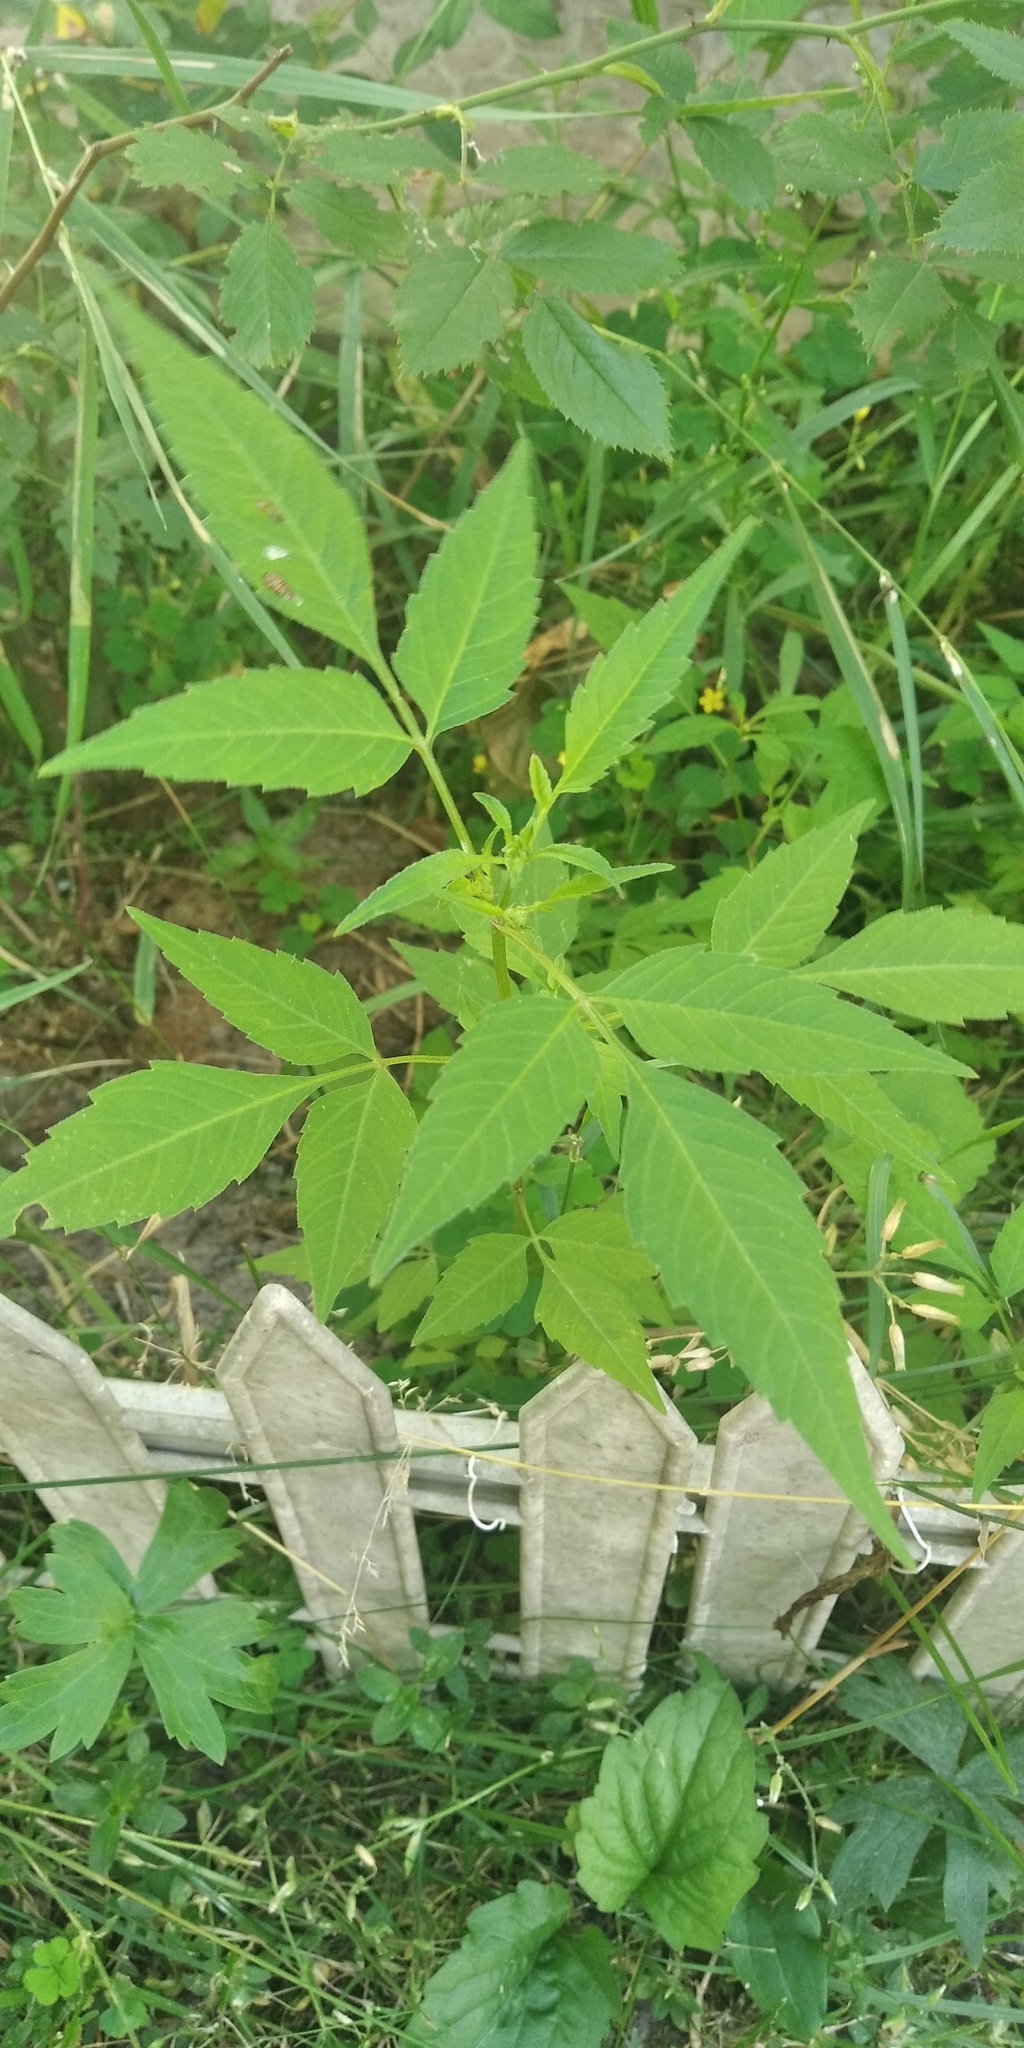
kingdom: Plantae
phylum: Tracheophyta
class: Magnoliopsida
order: Asterales
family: Asteraceae
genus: Bidens
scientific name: Bidens frondosa
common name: Beggarticks
